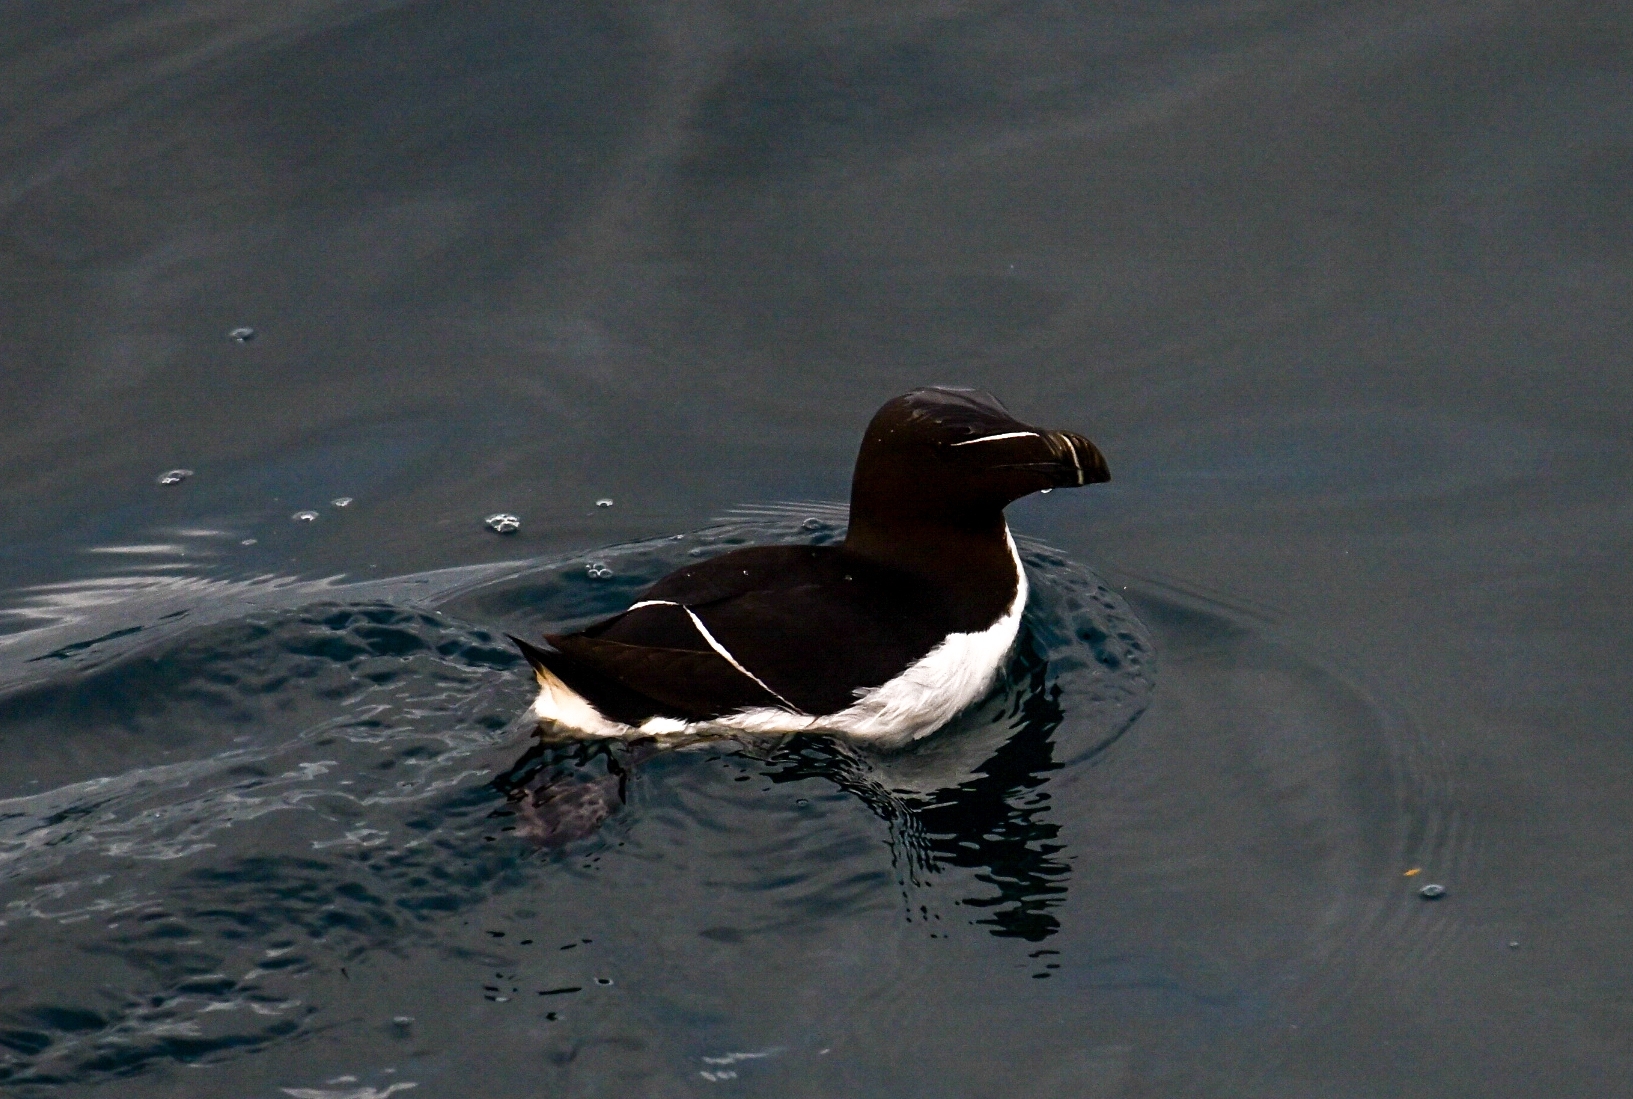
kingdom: Animalia
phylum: Chordata
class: Aves
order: Charadriiformes
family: Alcidae
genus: Alca
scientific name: Alca torda
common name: Razorbill
